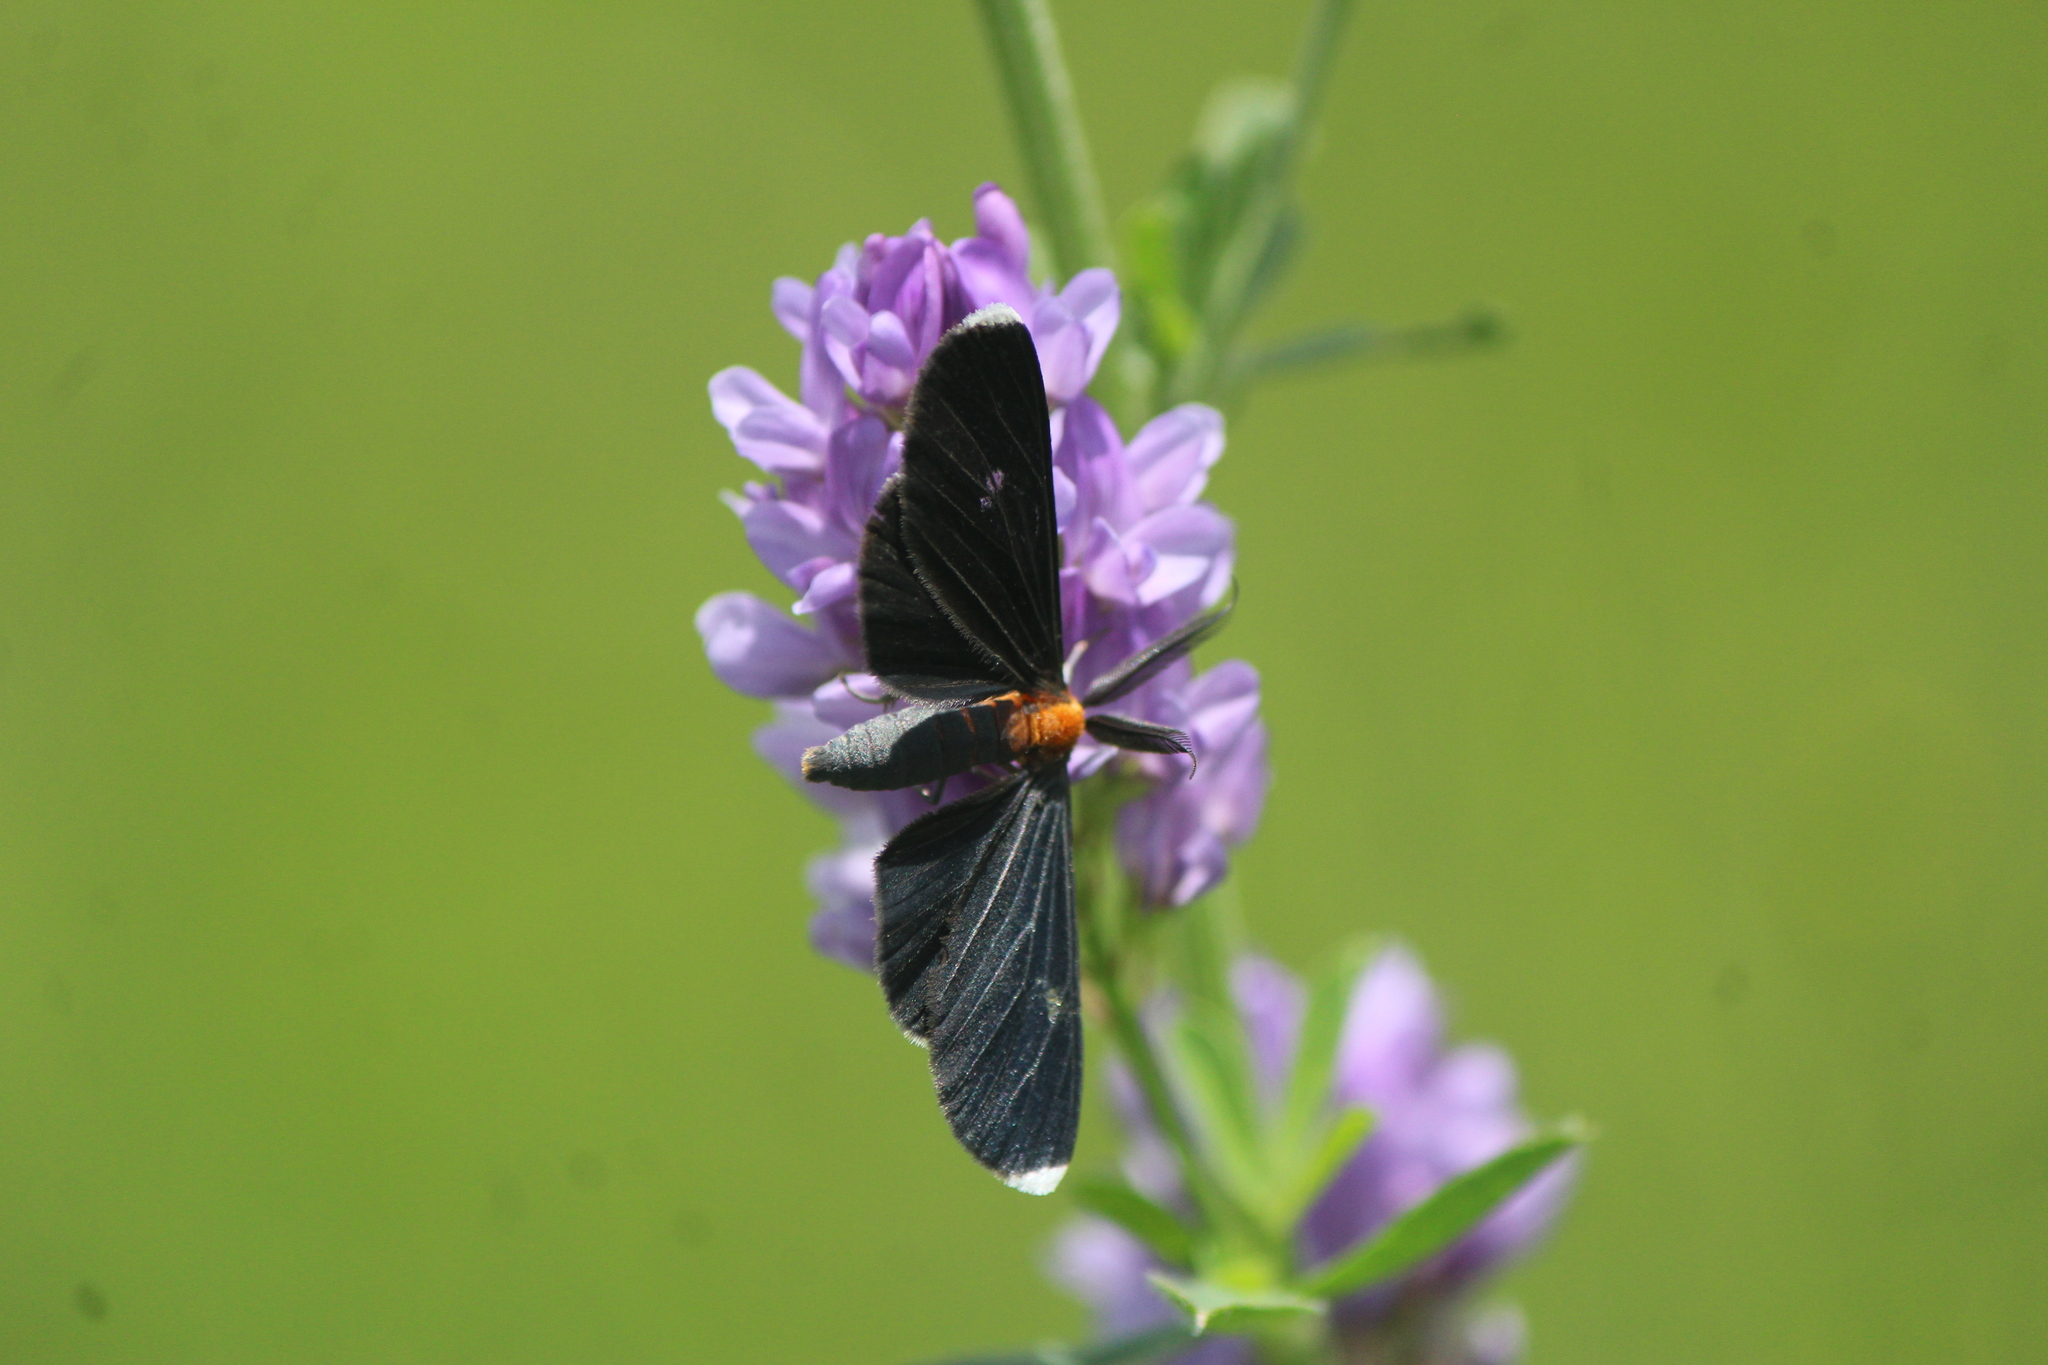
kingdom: Animalia
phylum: Arthropoda
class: Insecta
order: Lepidoptera
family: Geometridae
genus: Melanchroia
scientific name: Melanchroia chephise
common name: White-tipped black
